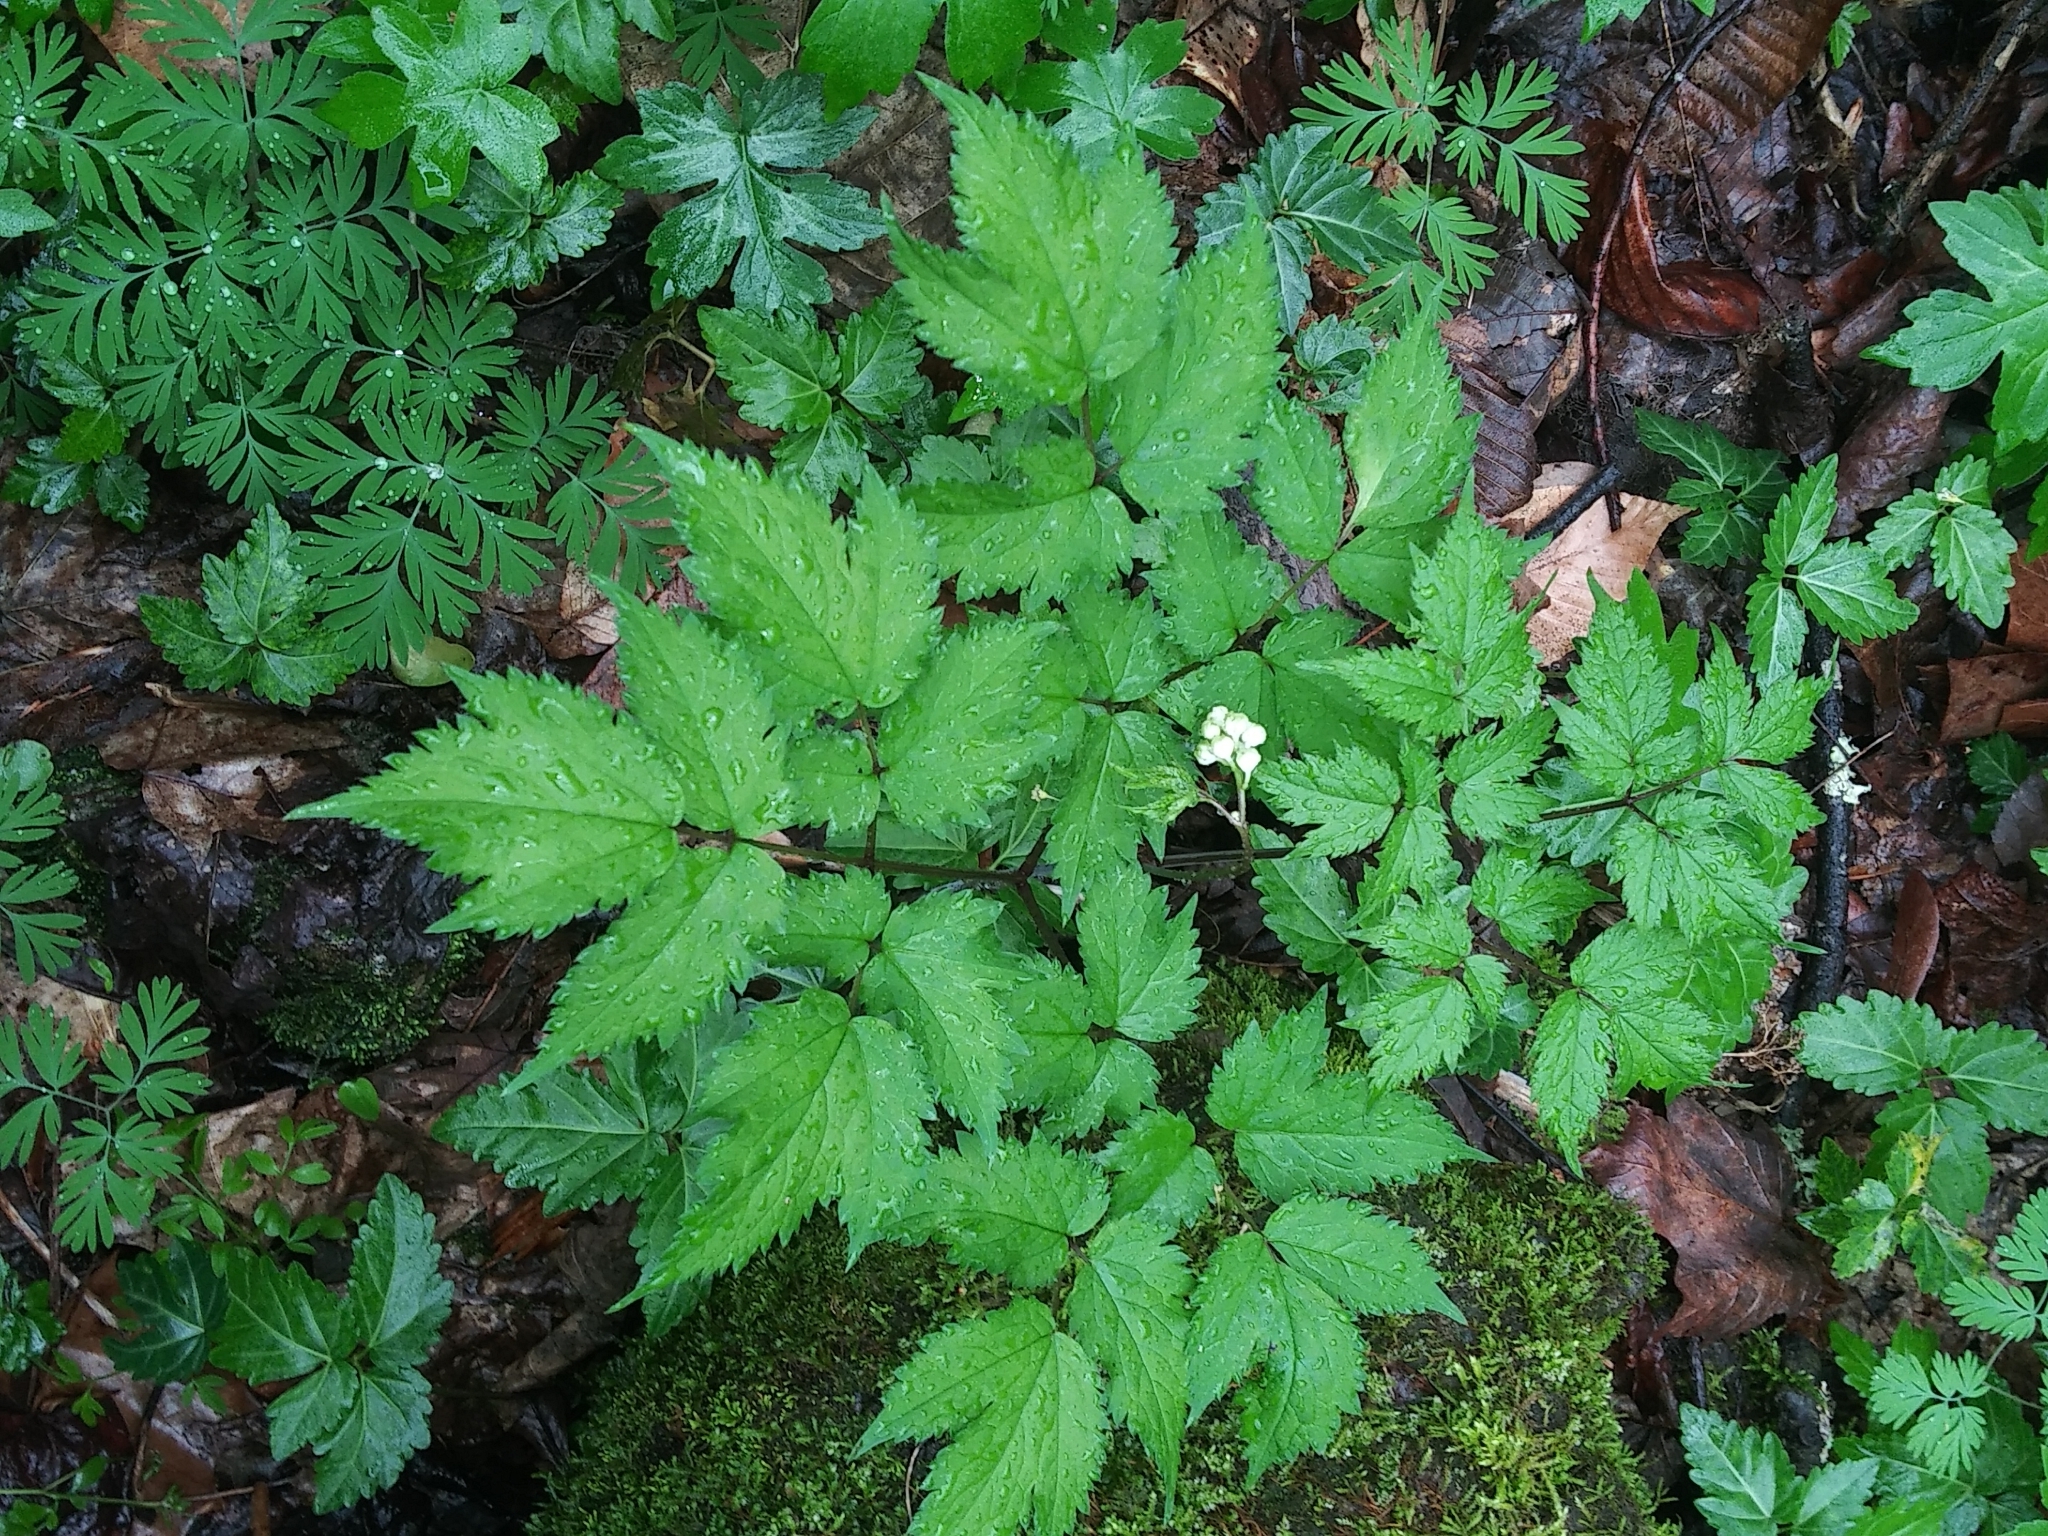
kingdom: Plantae
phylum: Tracheophyta
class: Magnoliopsida
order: Ranunculales
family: Ranunculaceae
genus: Actaea
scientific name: Actaea pachypoda
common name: Doll's-eyes
